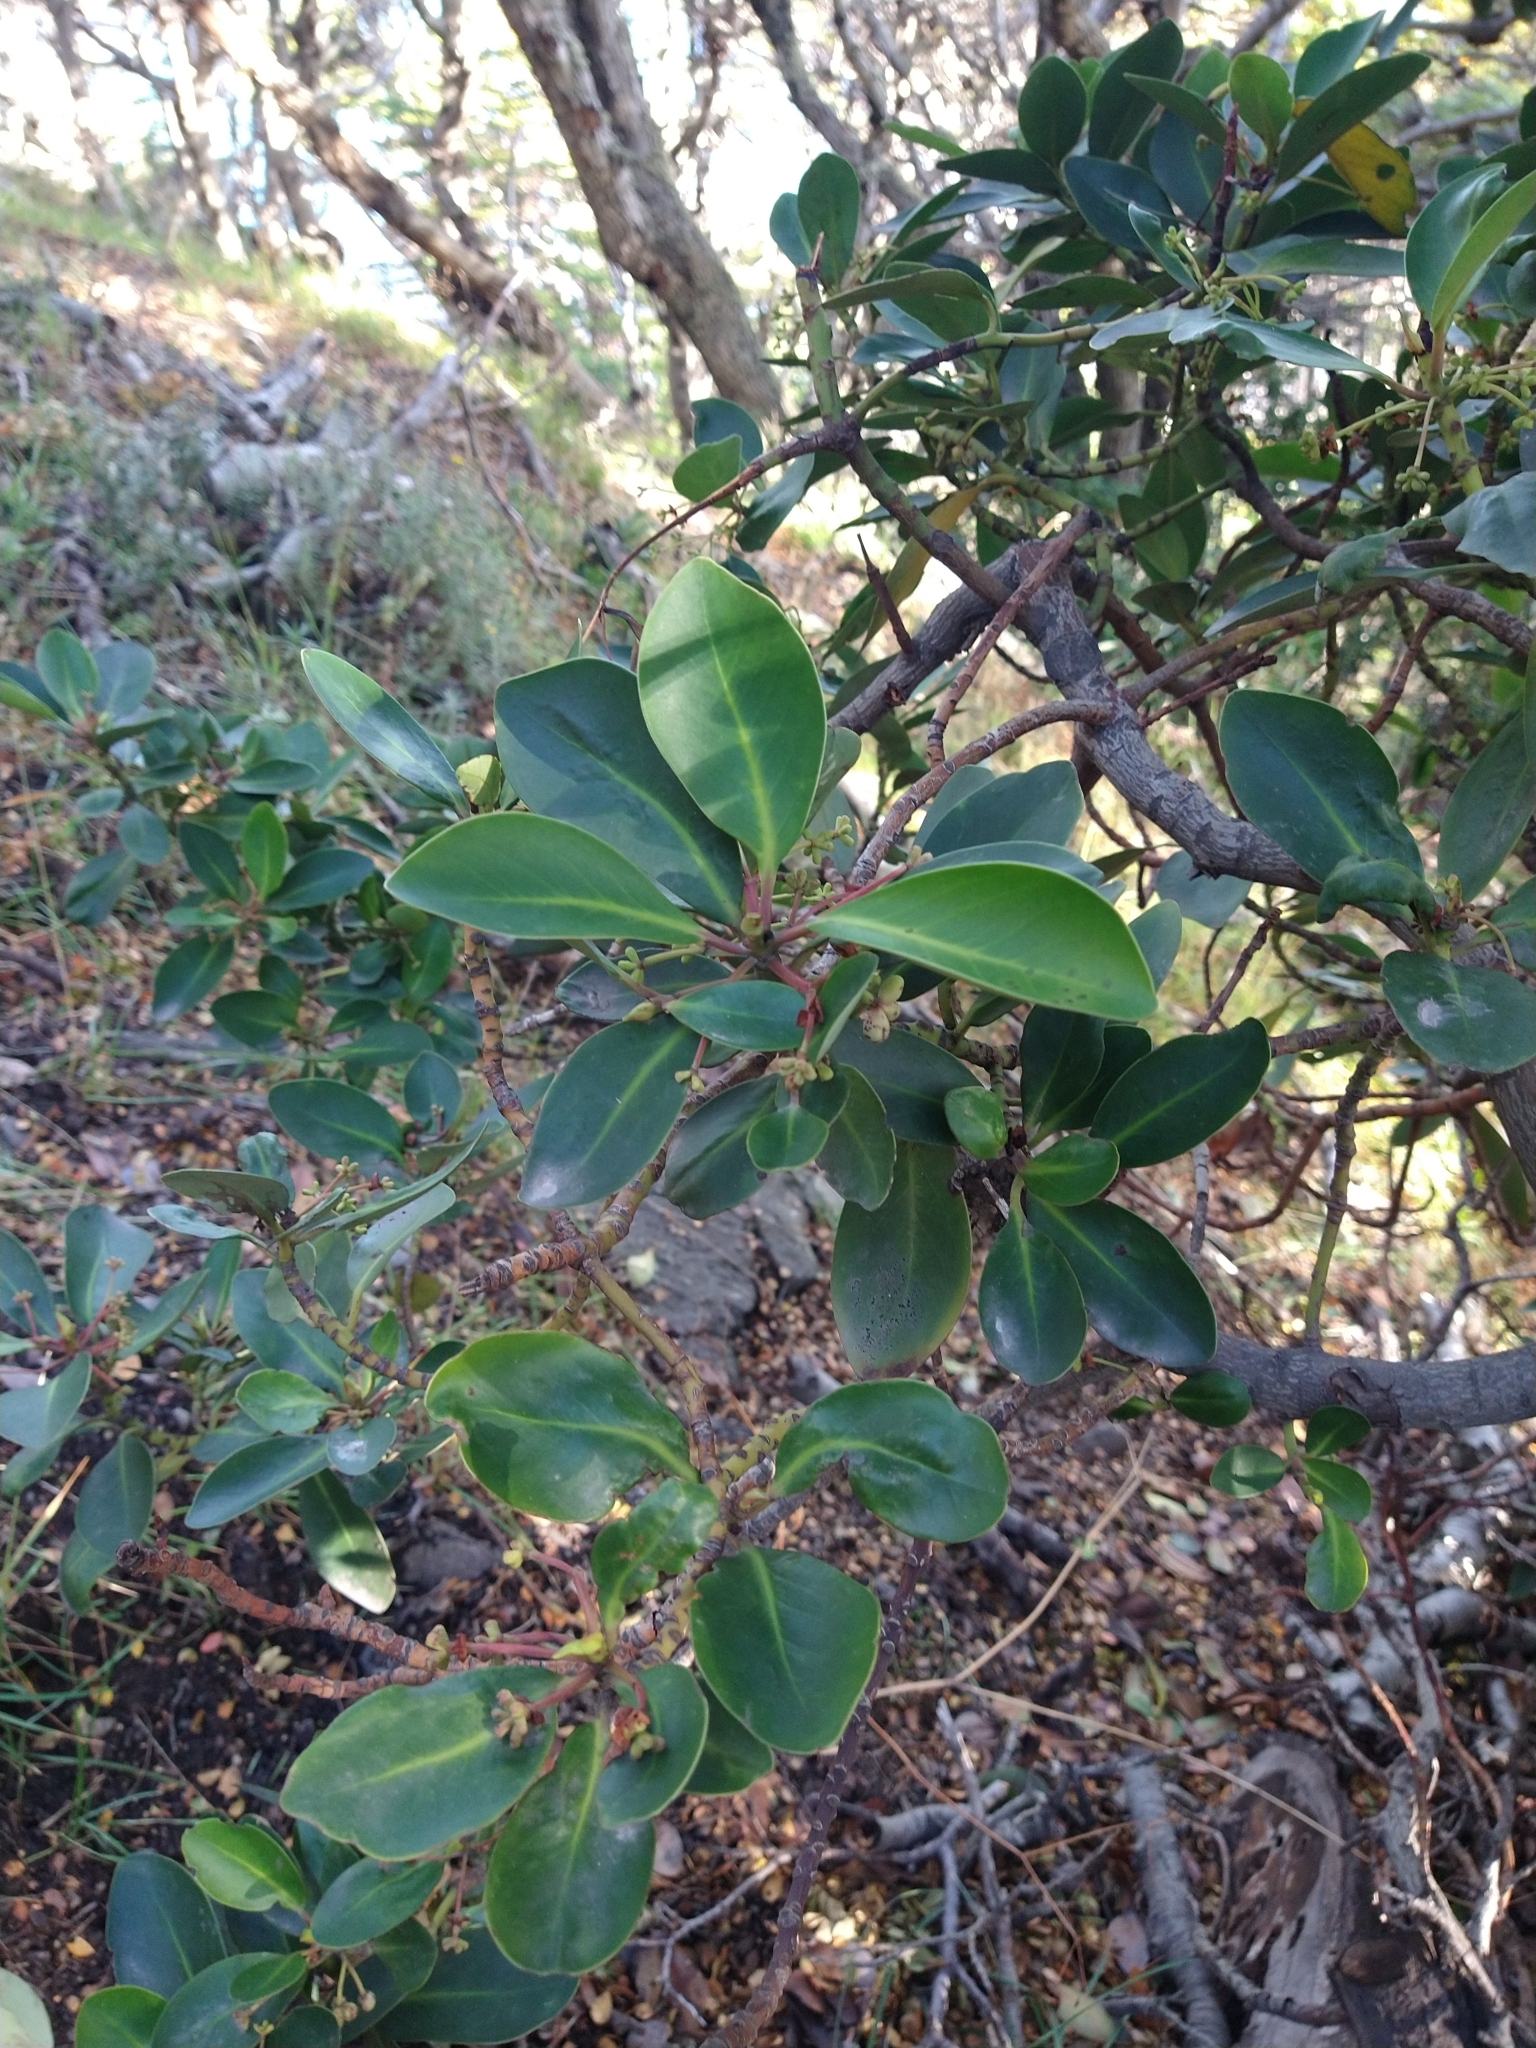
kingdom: Plantae
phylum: Tracheophyta
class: Magnoliopsida
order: Canellales
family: Winteraceae
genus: Drimys
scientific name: Drimys winteri
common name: Winter's-bark
